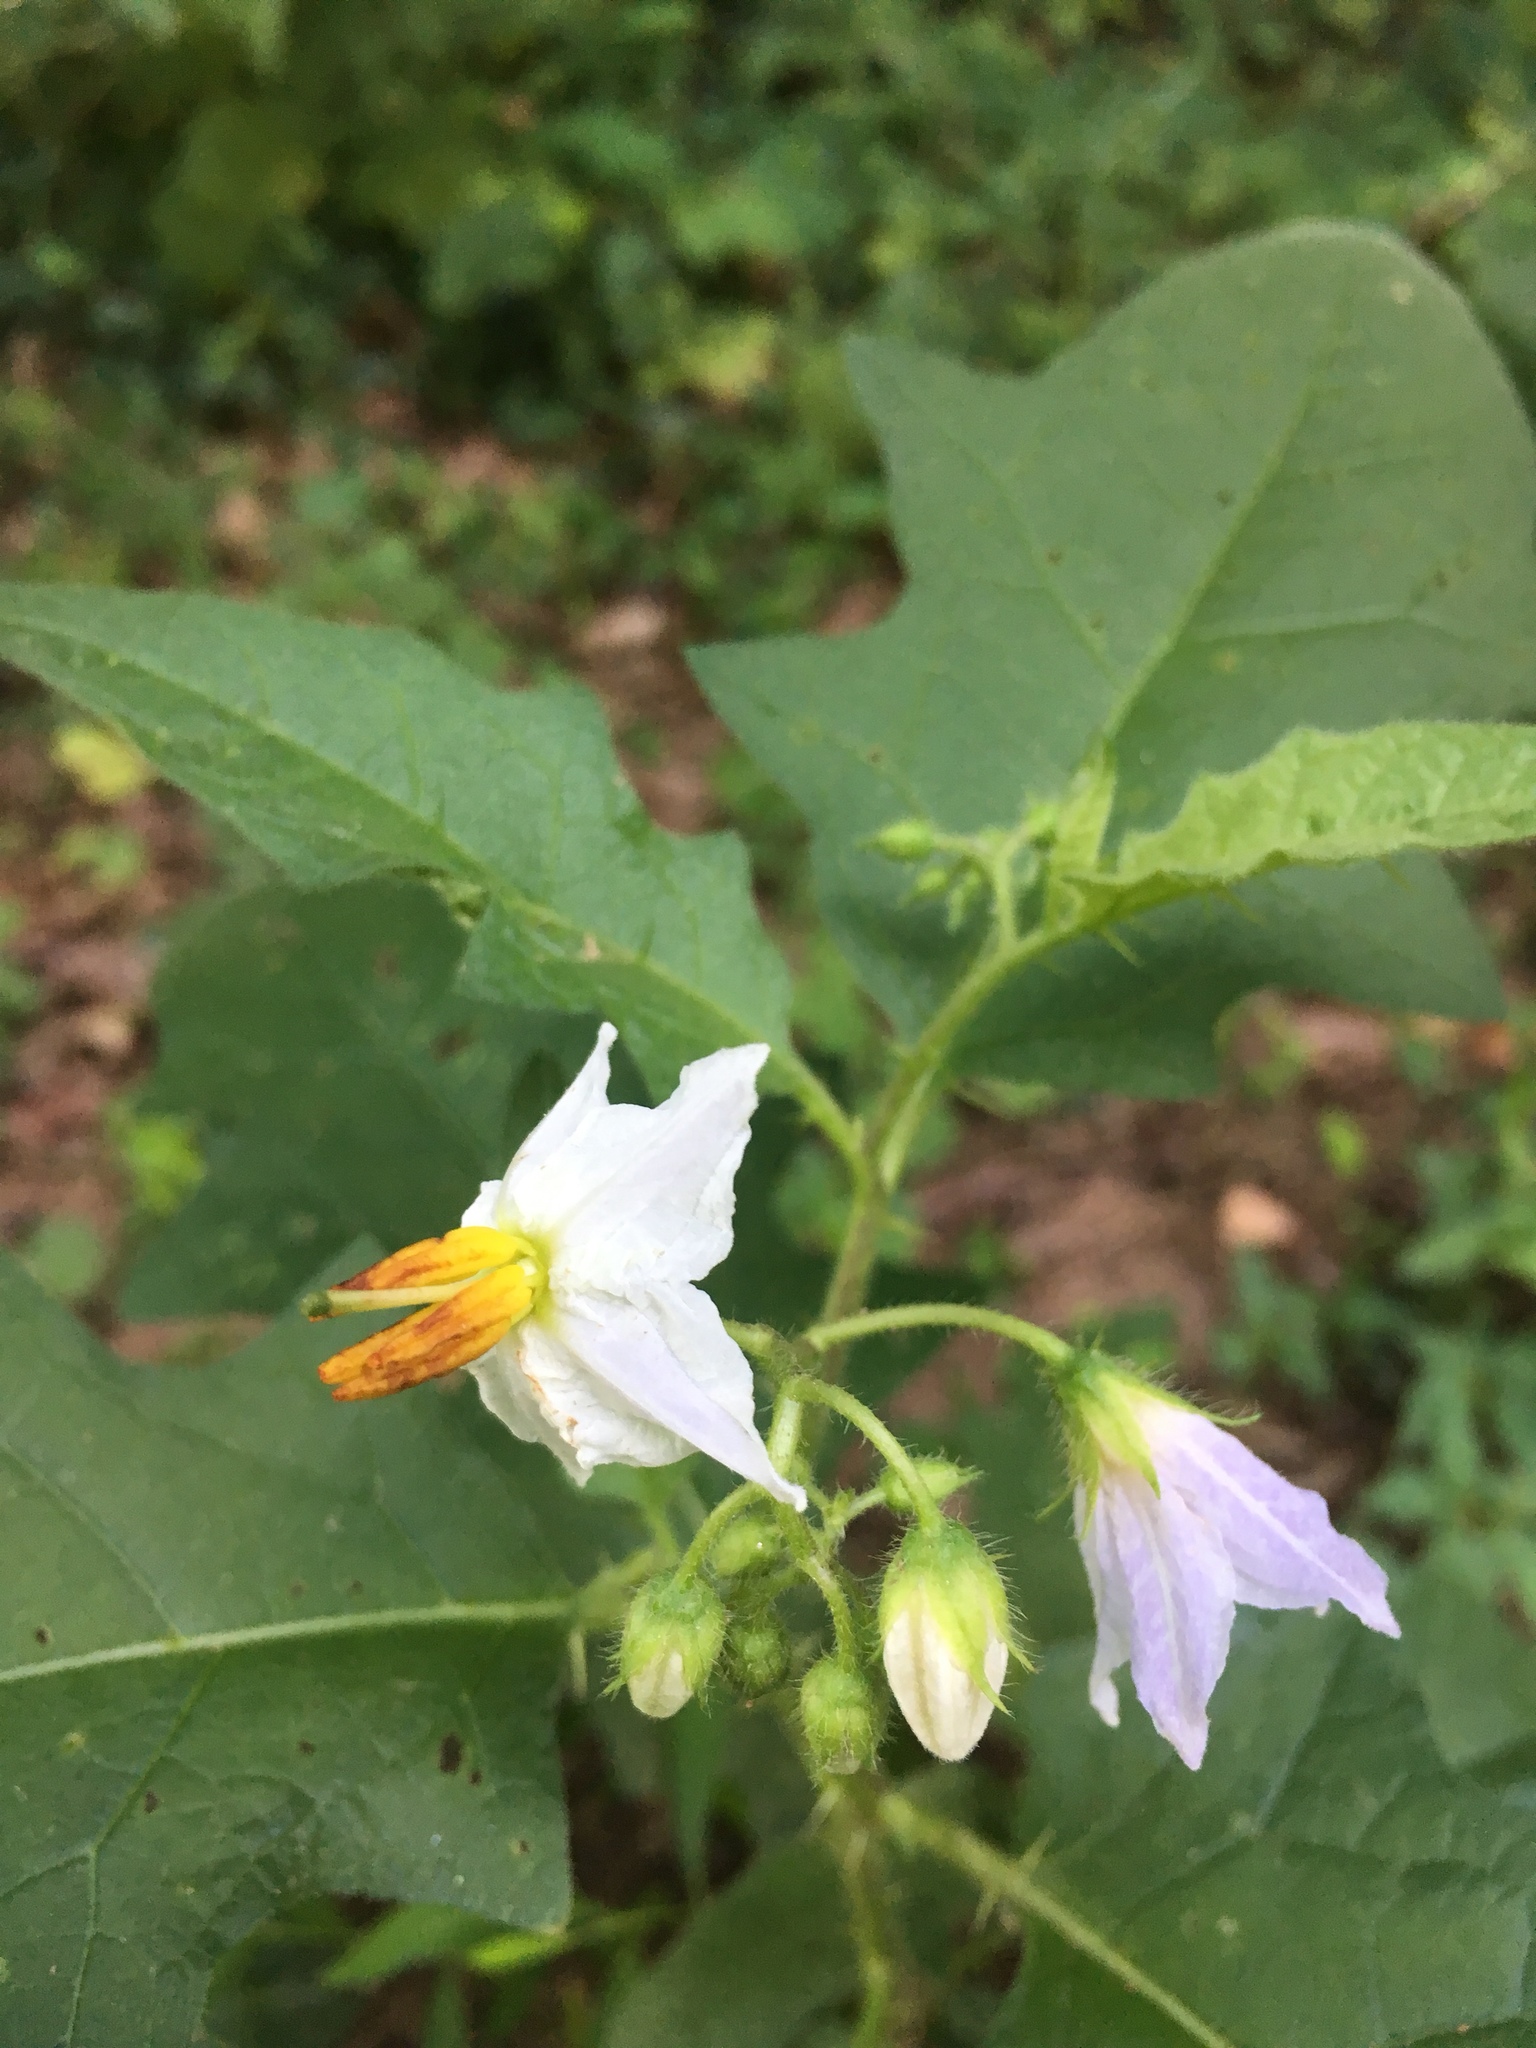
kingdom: Plantae
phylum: Tracheophyta
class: Magnoliopsida
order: Solanales
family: Solanaceae
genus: Solanum
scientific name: Solanum carolinense
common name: Horse-nettle
